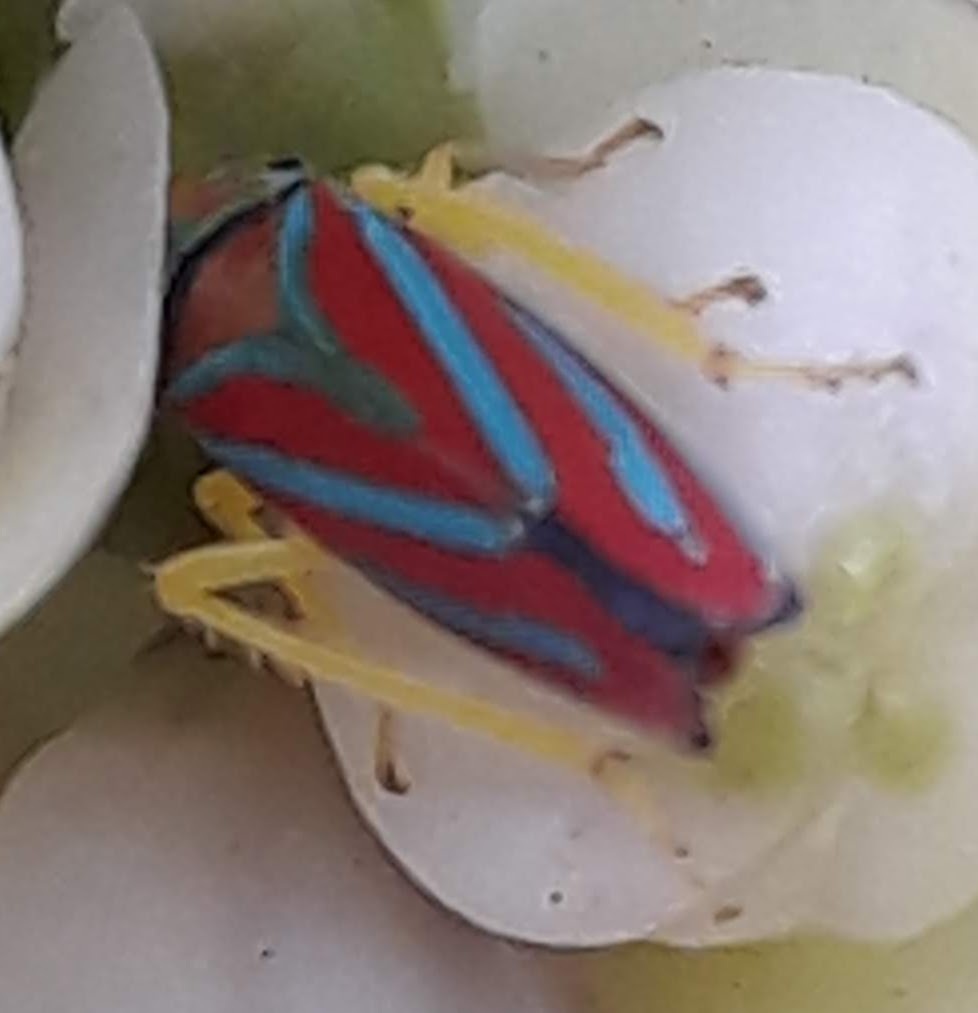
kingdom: Animalia
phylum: Arthropoda
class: Insecta
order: Hemiptera
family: Cicadellidae
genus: Graphocephala
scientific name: Graphocephala coccinea
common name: Candy-striped leafhopper
